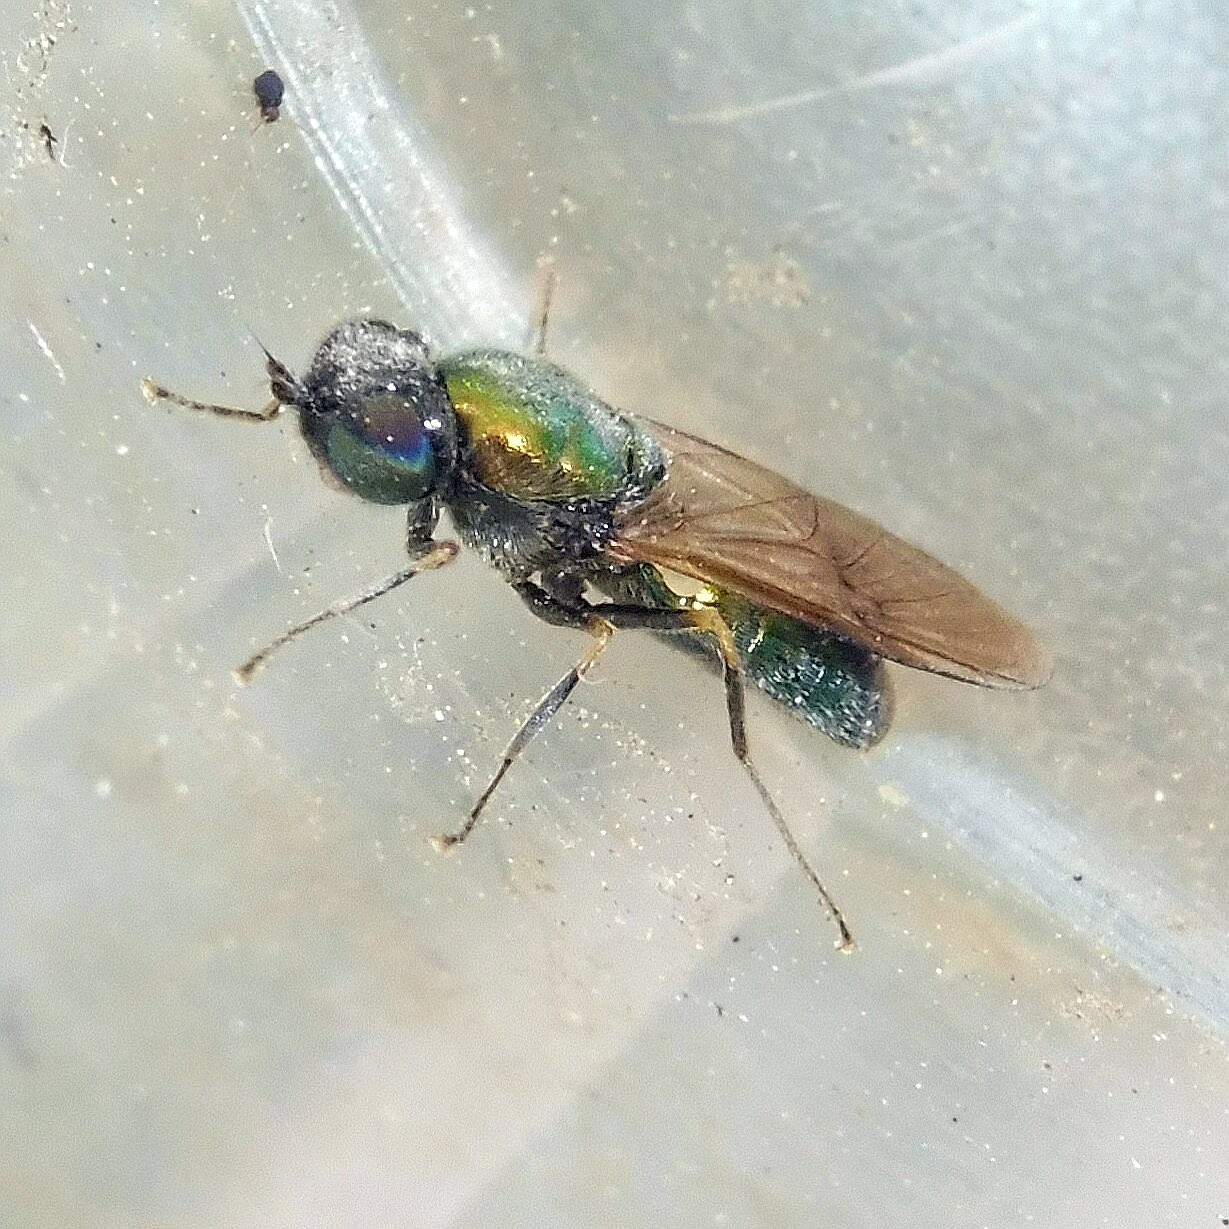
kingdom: Animalia
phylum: Arthropoda
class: Insecta
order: Diptera
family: Stratiomyidae
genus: Chloromyia
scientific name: Chloromyia formosa
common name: Soldier fly
